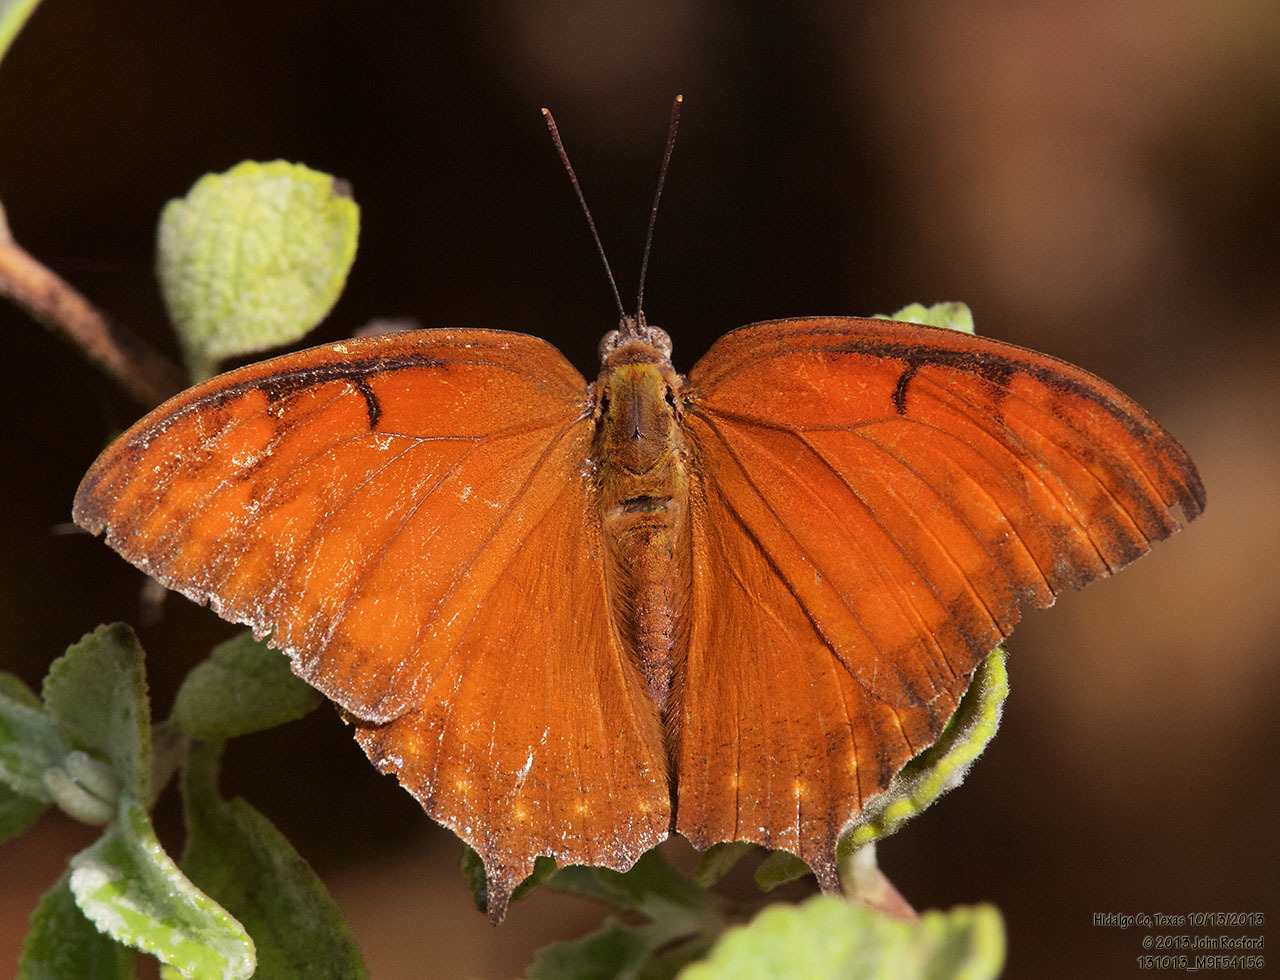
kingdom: Animalia
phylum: Arthropoda
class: Insecta
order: Lepidoptera
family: Nymphalidae
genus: Anaea
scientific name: Anaea aidea
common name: Tropical leafwing
